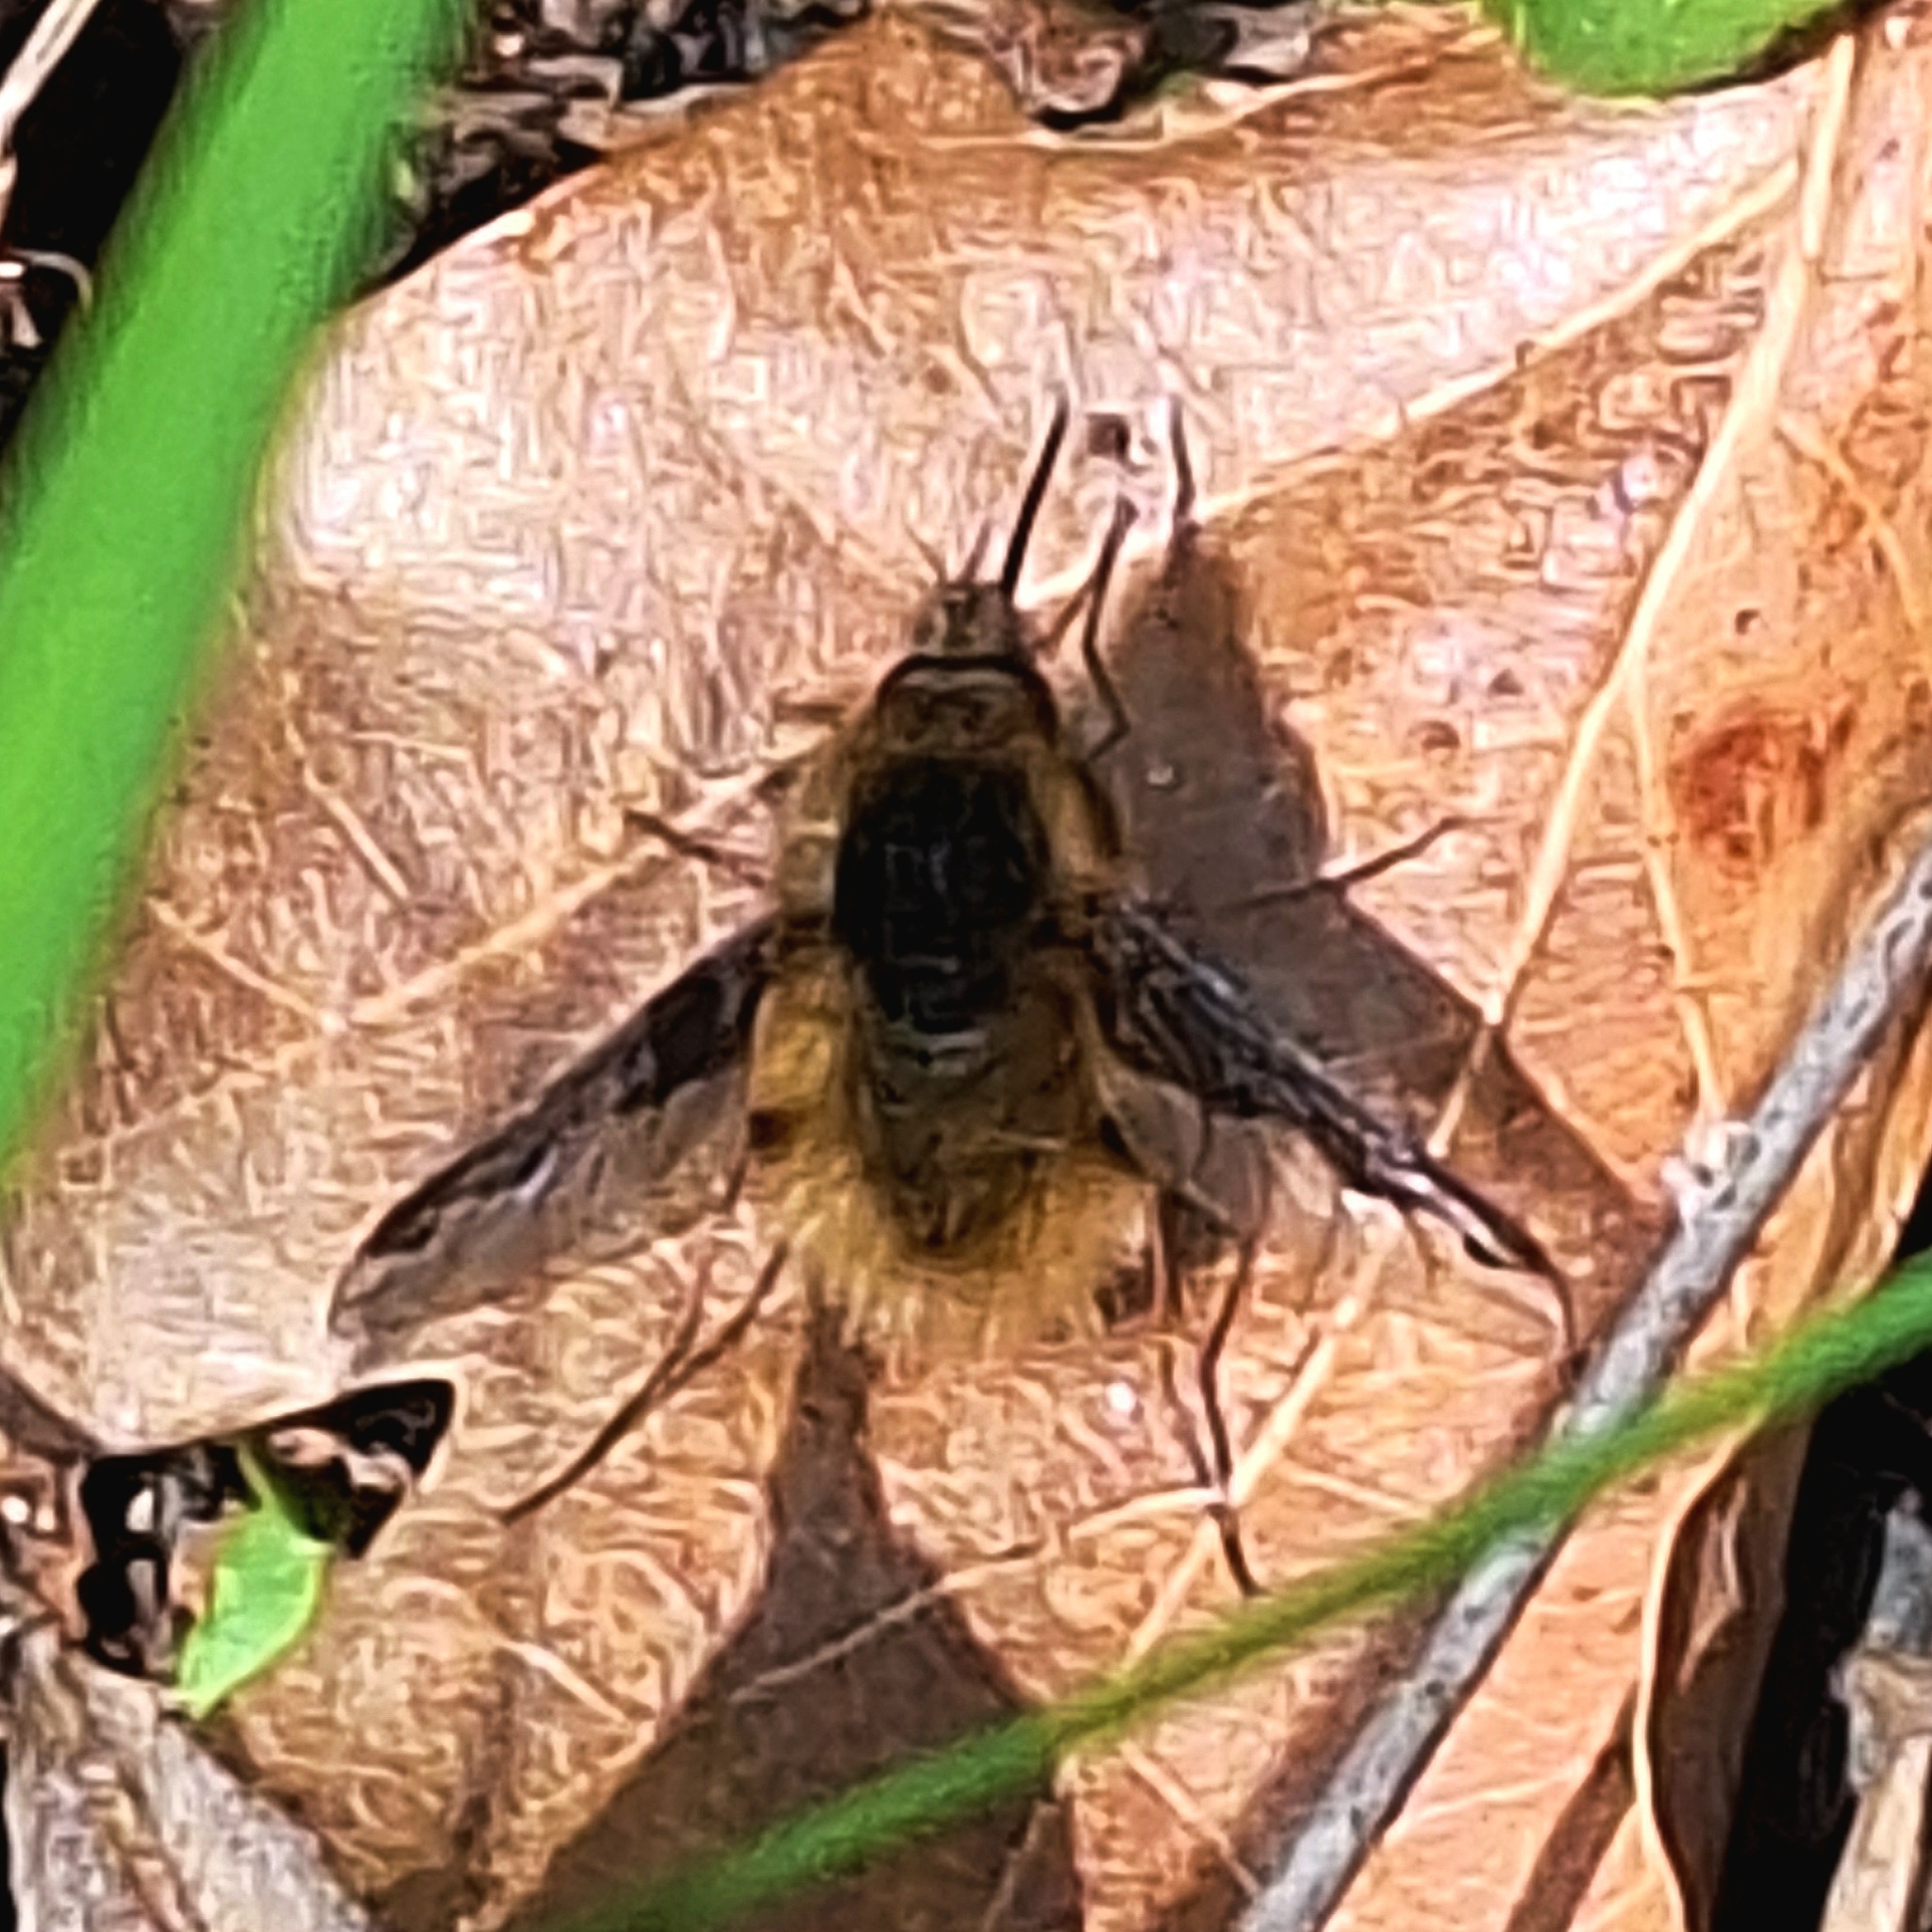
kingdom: Animalia
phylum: Arthropoda
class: Insecta
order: Diptera
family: Bombyliidae
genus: Bombylius
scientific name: Bombylius major
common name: Bee fly
